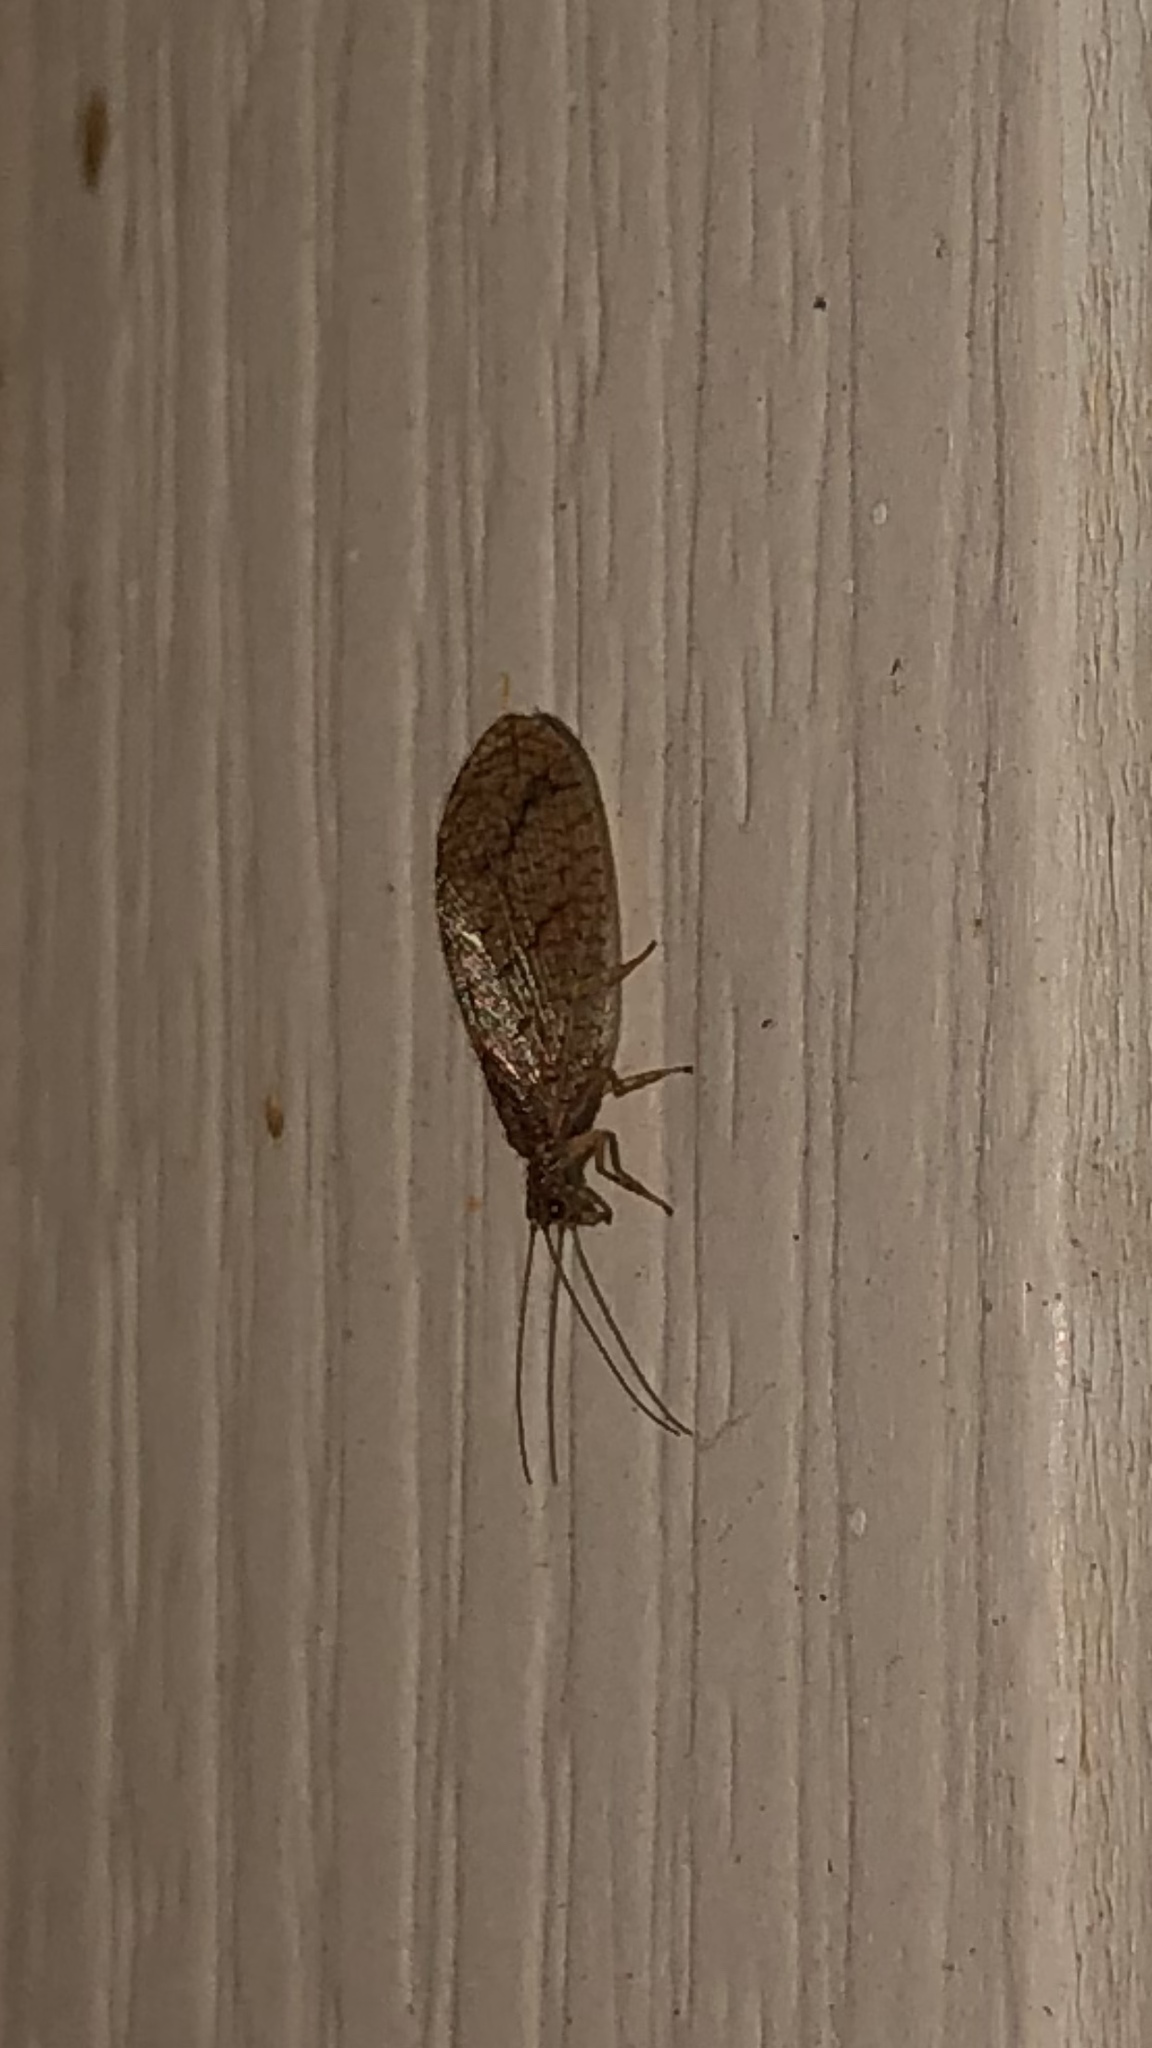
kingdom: Animalia
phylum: Arthropoda
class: Insecta
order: Neuroptera
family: Hemerobiidae
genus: Micromus
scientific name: Micromus posticus
